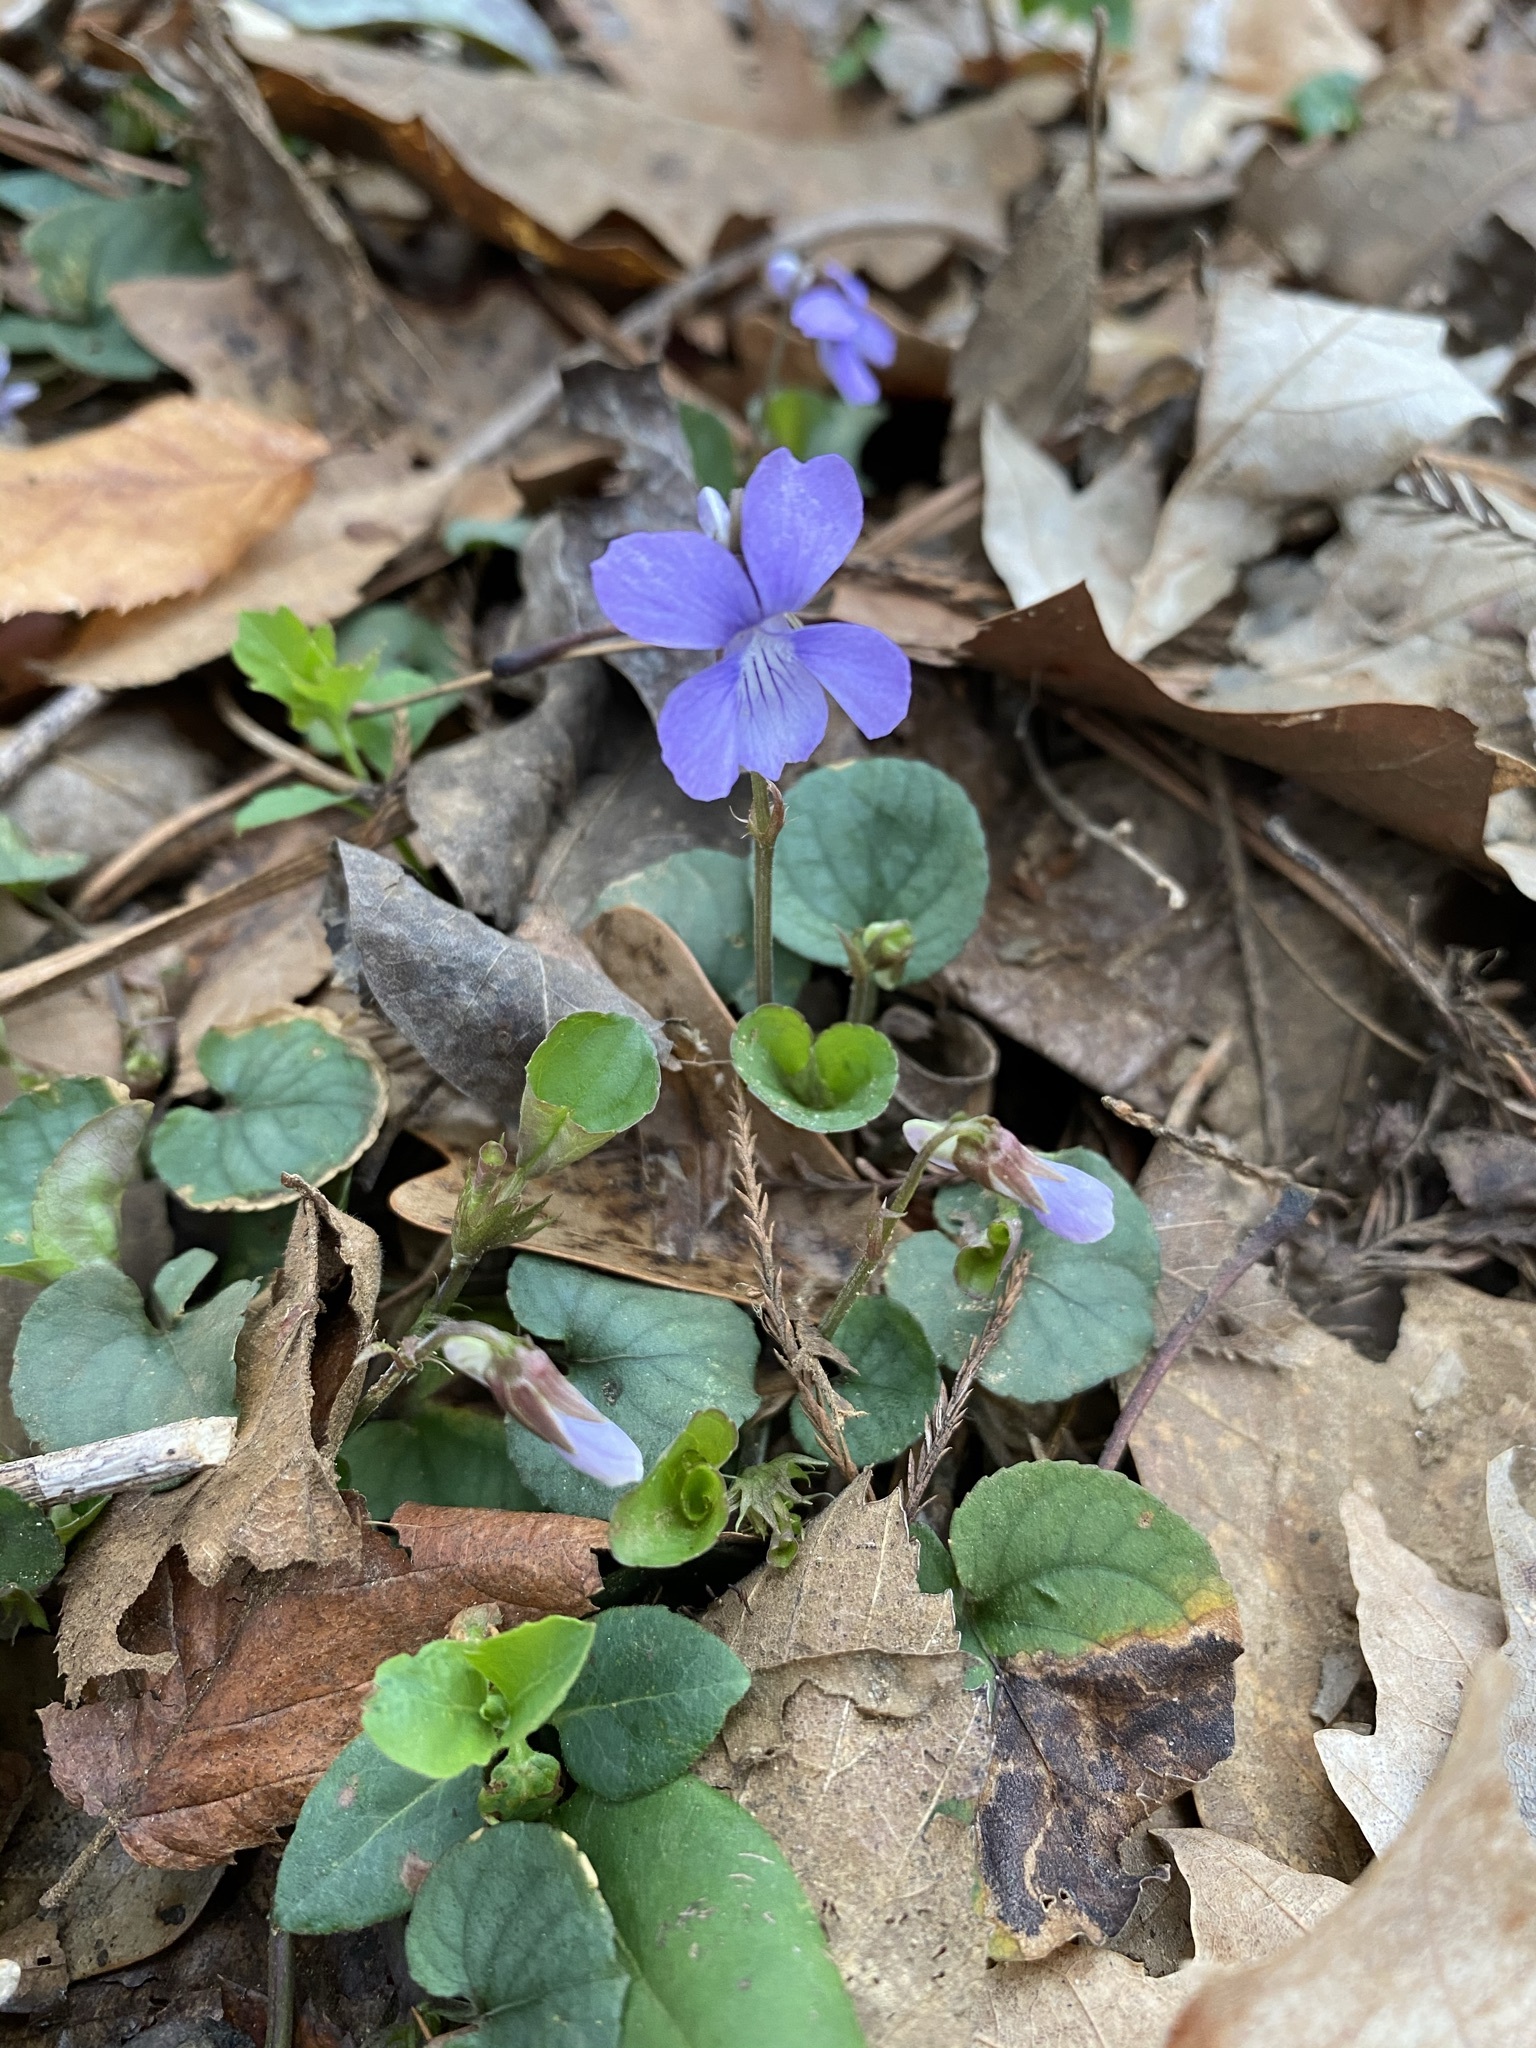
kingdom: Plantae
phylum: Tracheophyta
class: Magnoliopsida
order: Malpighiales
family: Violaceae
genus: Viola
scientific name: Viola walteri
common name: Prostrate southern violet
